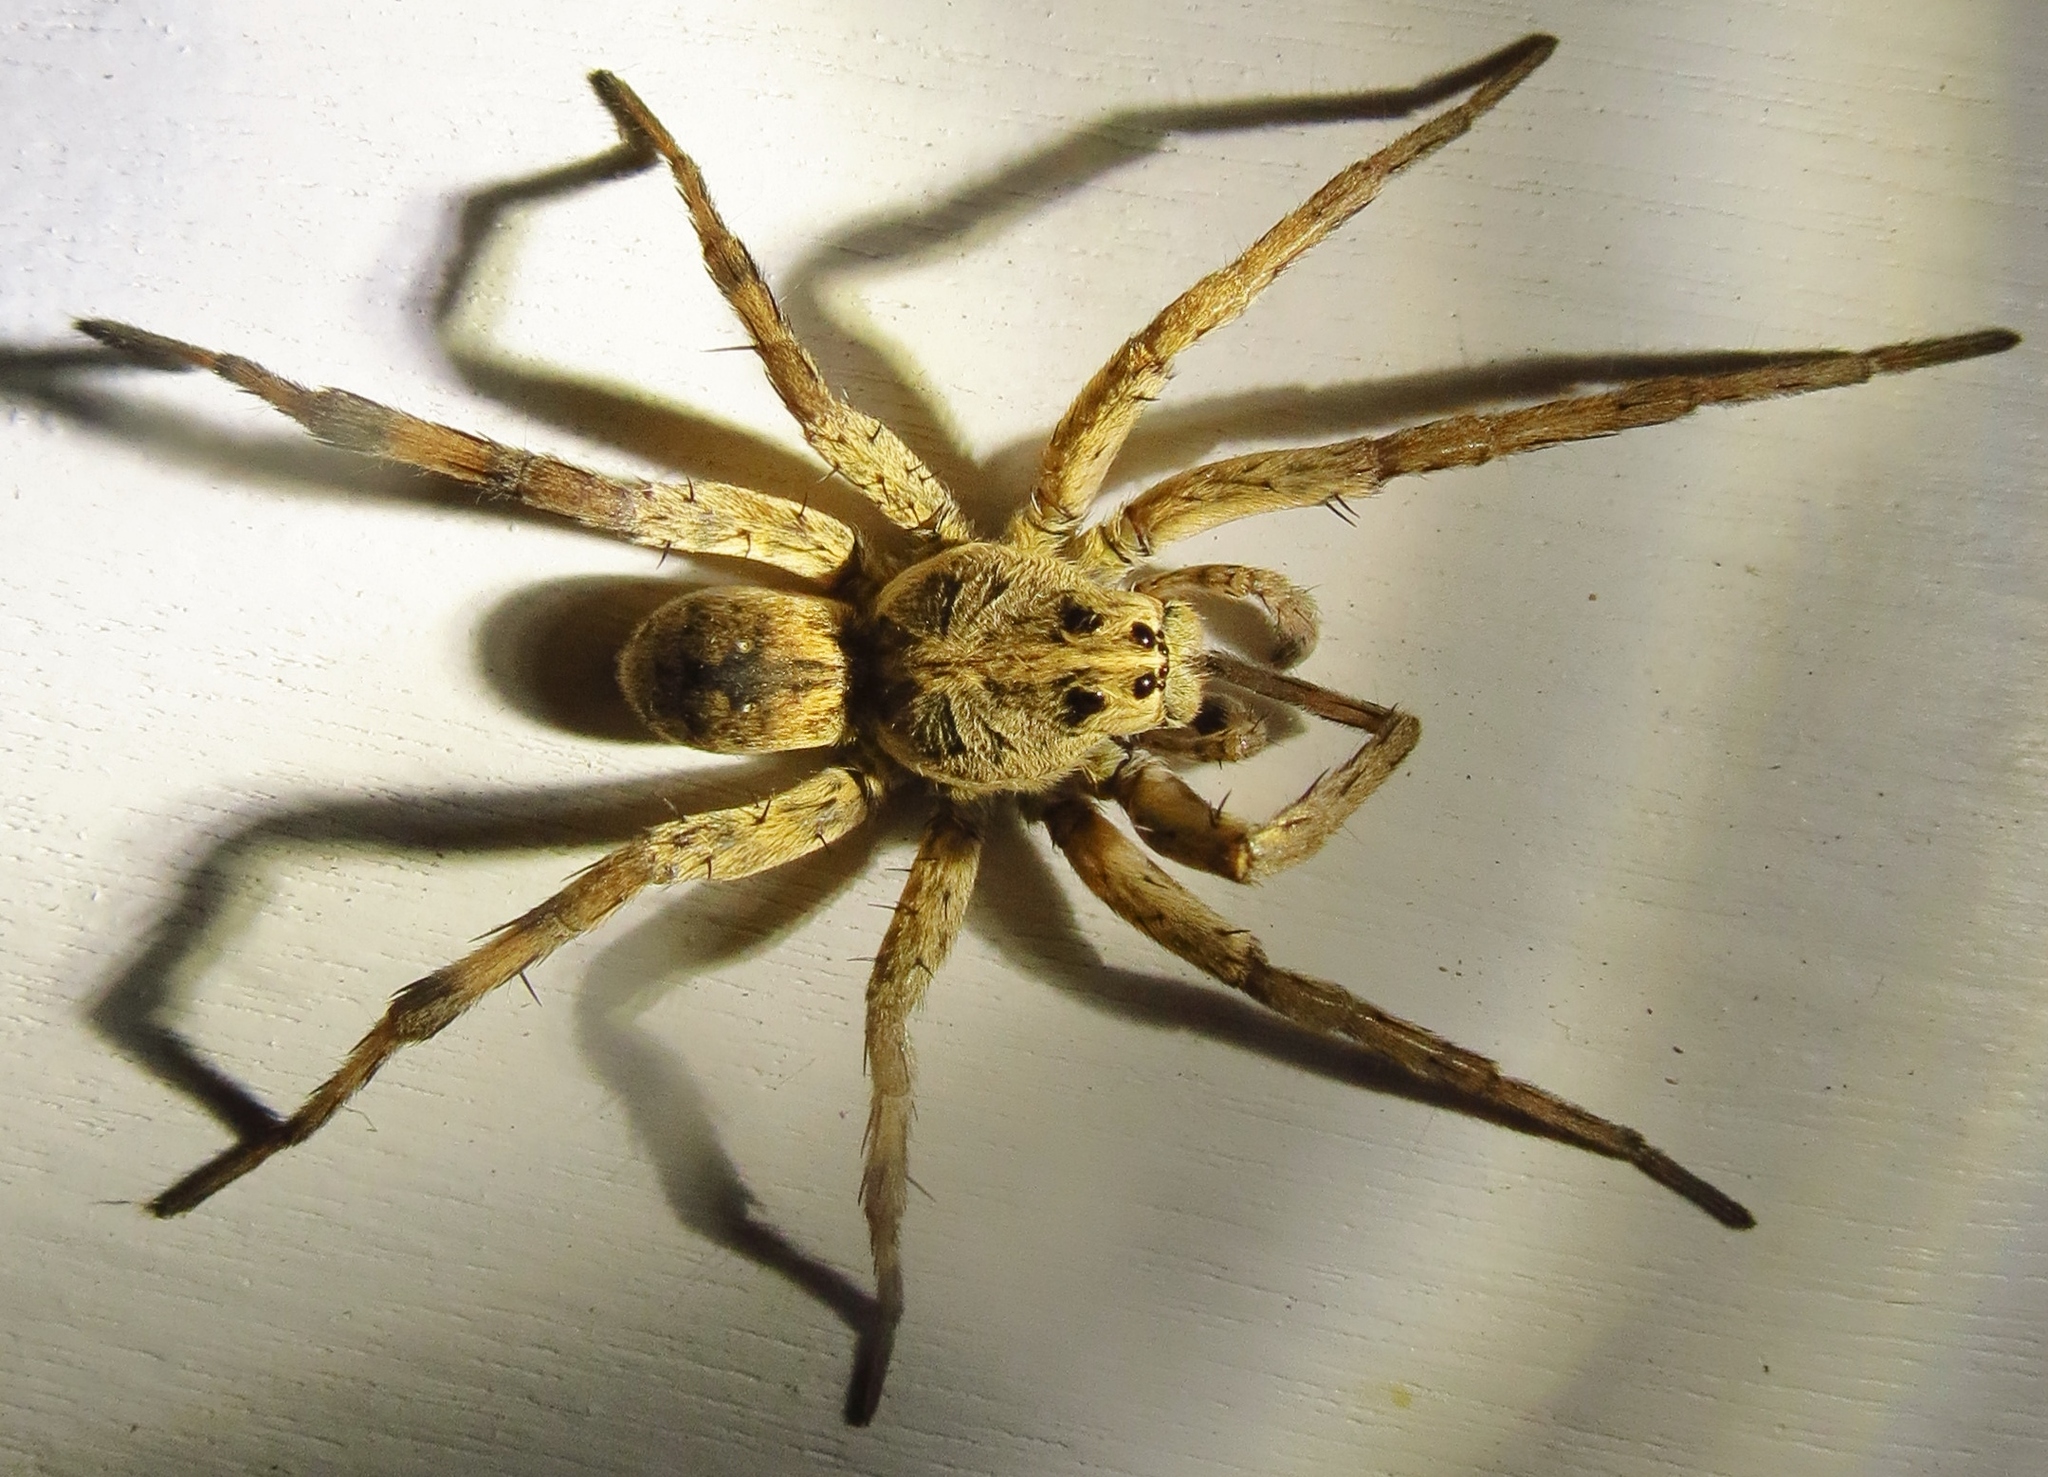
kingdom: Animalia
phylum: Arthropoda
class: Arachnida
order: Araneae
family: Lycosidae
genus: Hogna
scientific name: Hogna antelucana
